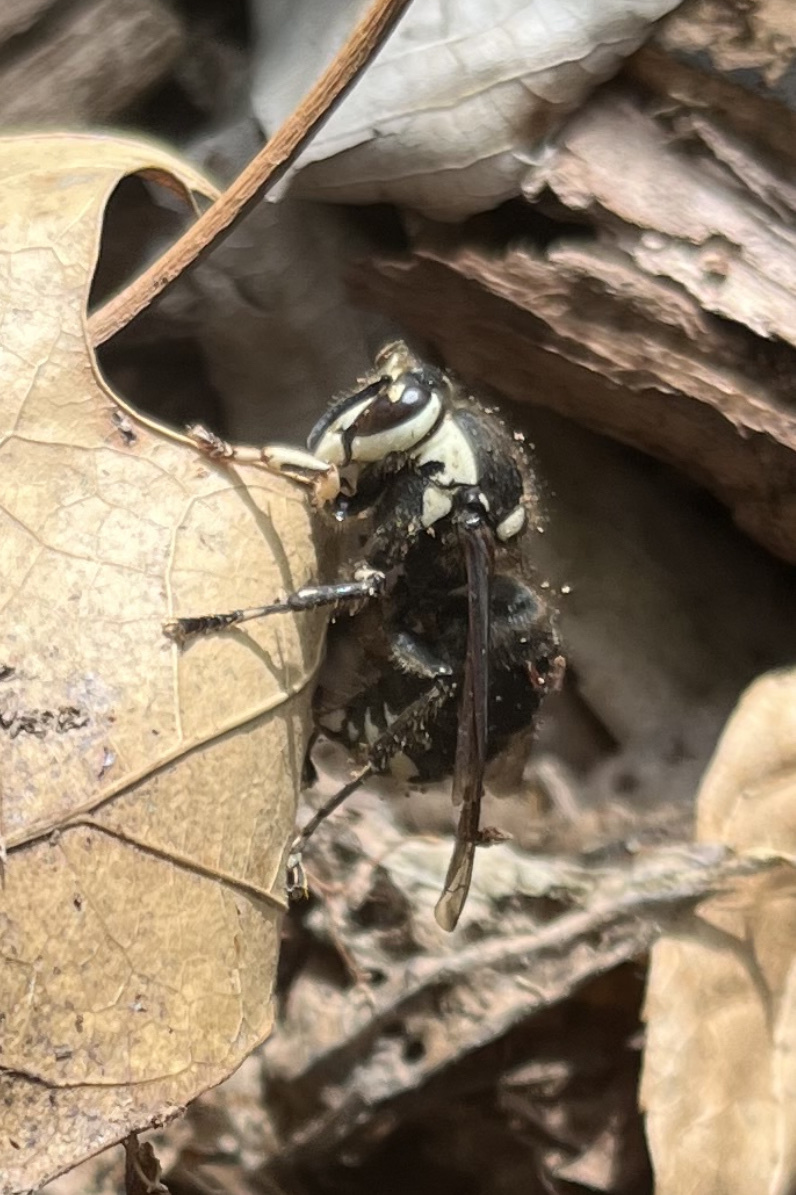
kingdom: Animalia
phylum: Arthropoda
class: Insecta
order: Hymenoptera
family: Vespidae
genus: Dolichovespula
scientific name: Dolichovespula maculata
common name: Bald-faced hornet
